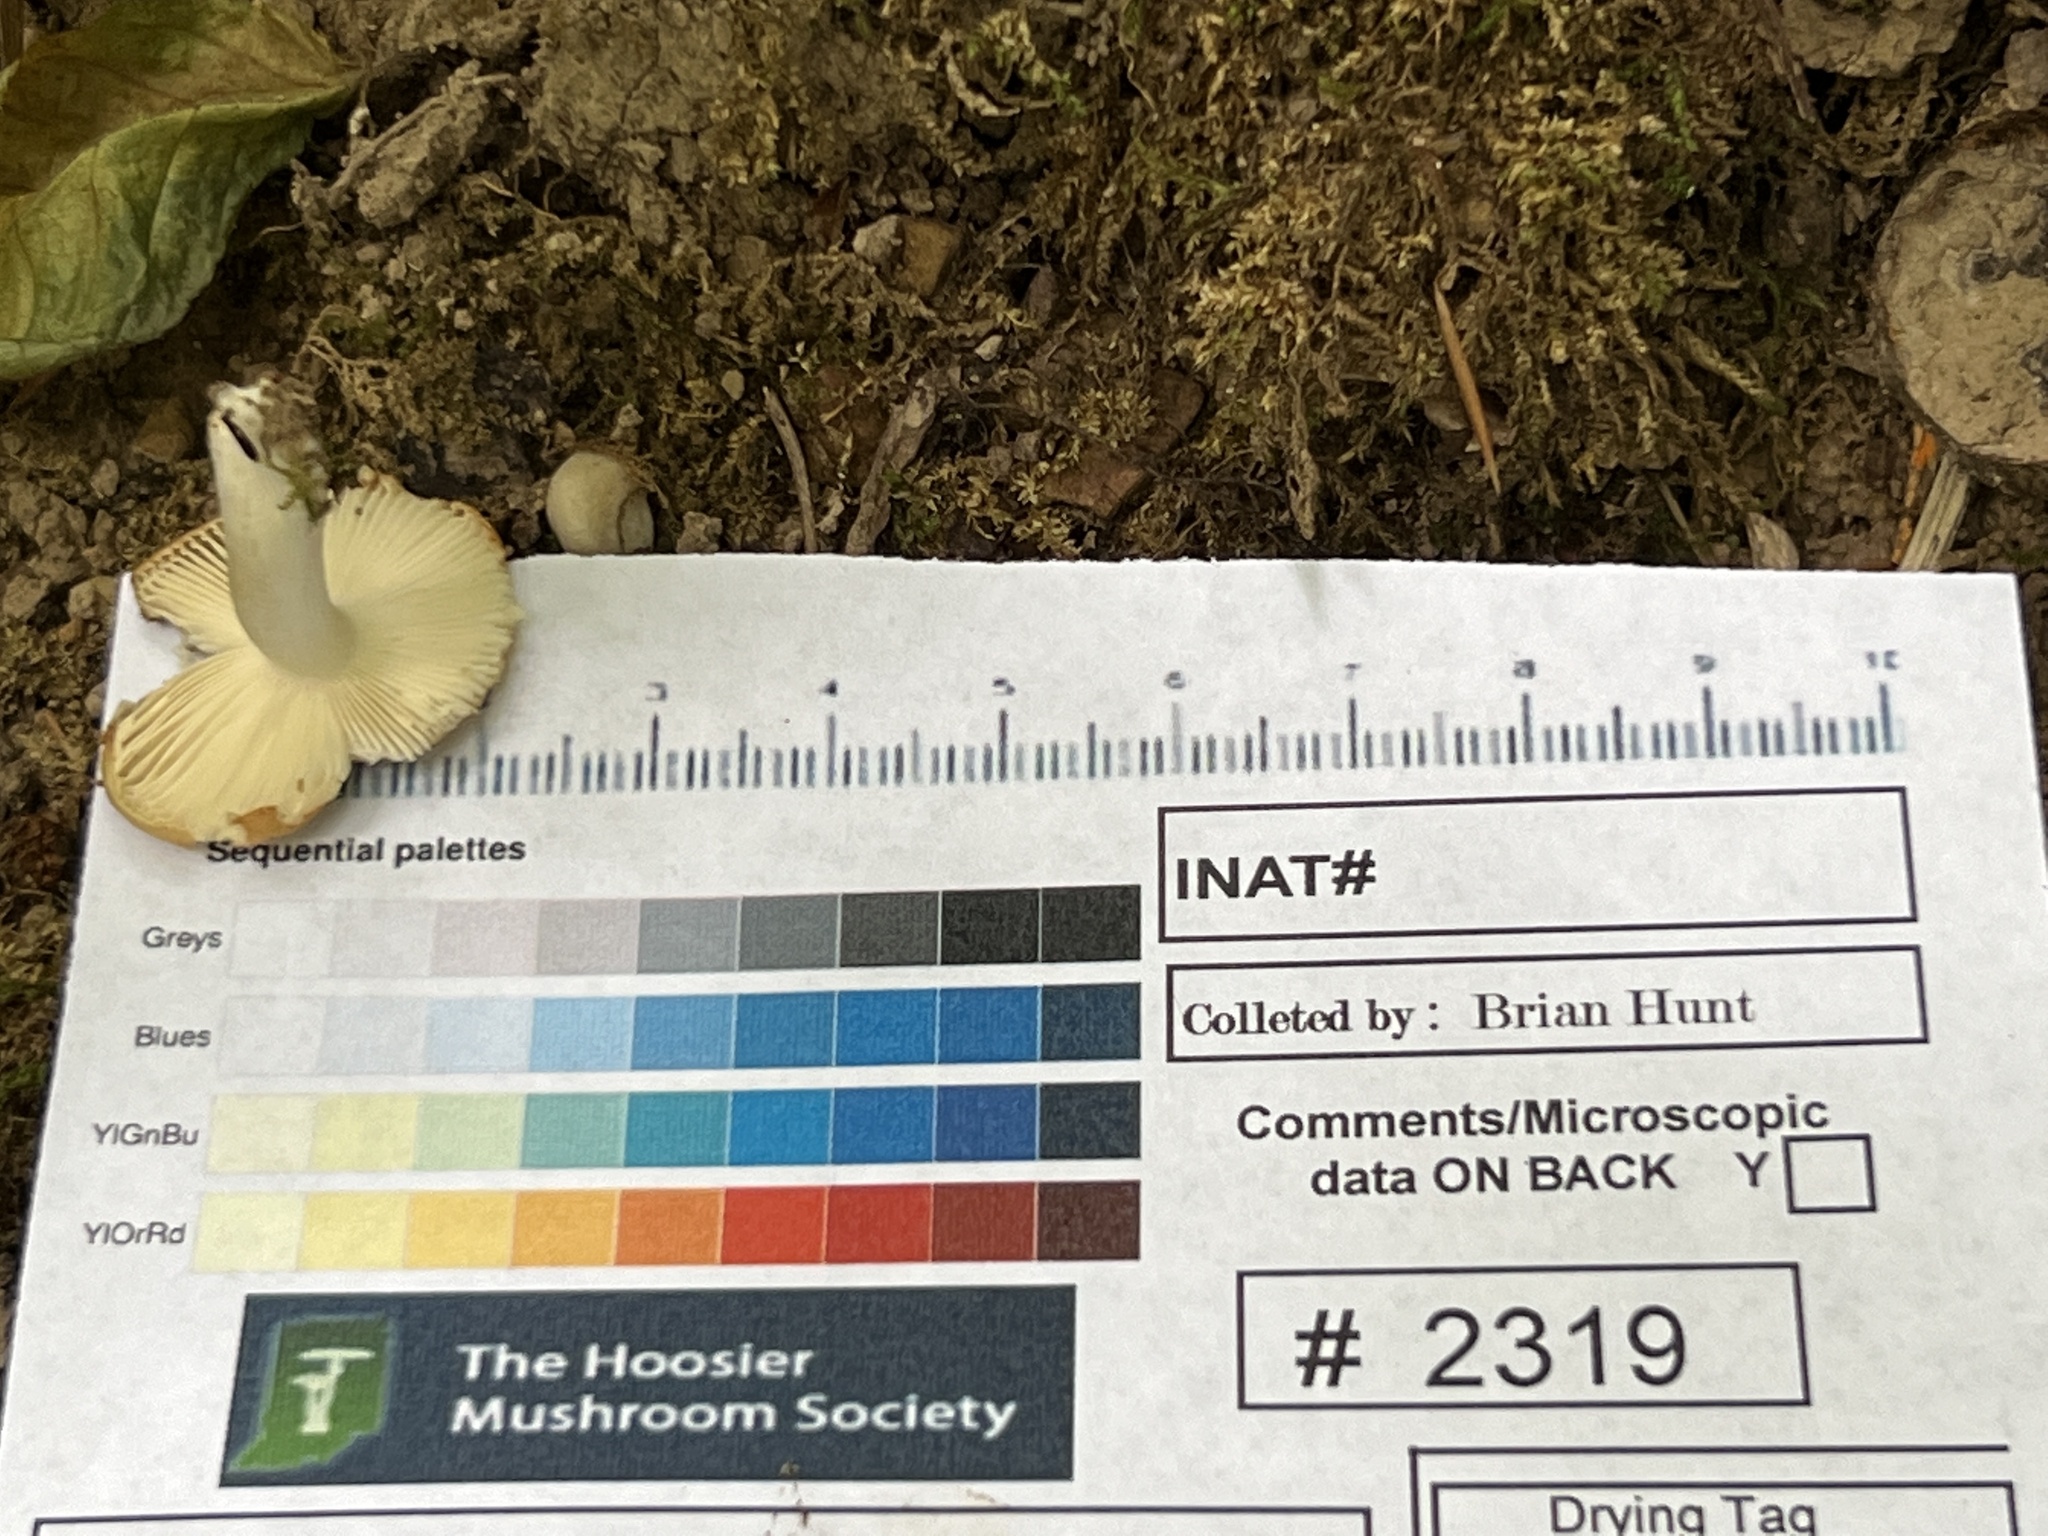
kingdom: Fungi
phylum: Basidiomycota
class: Agaricomycetes
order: Russulales
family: Russulaceae
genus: Russula
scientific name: Russula amerorecondita
